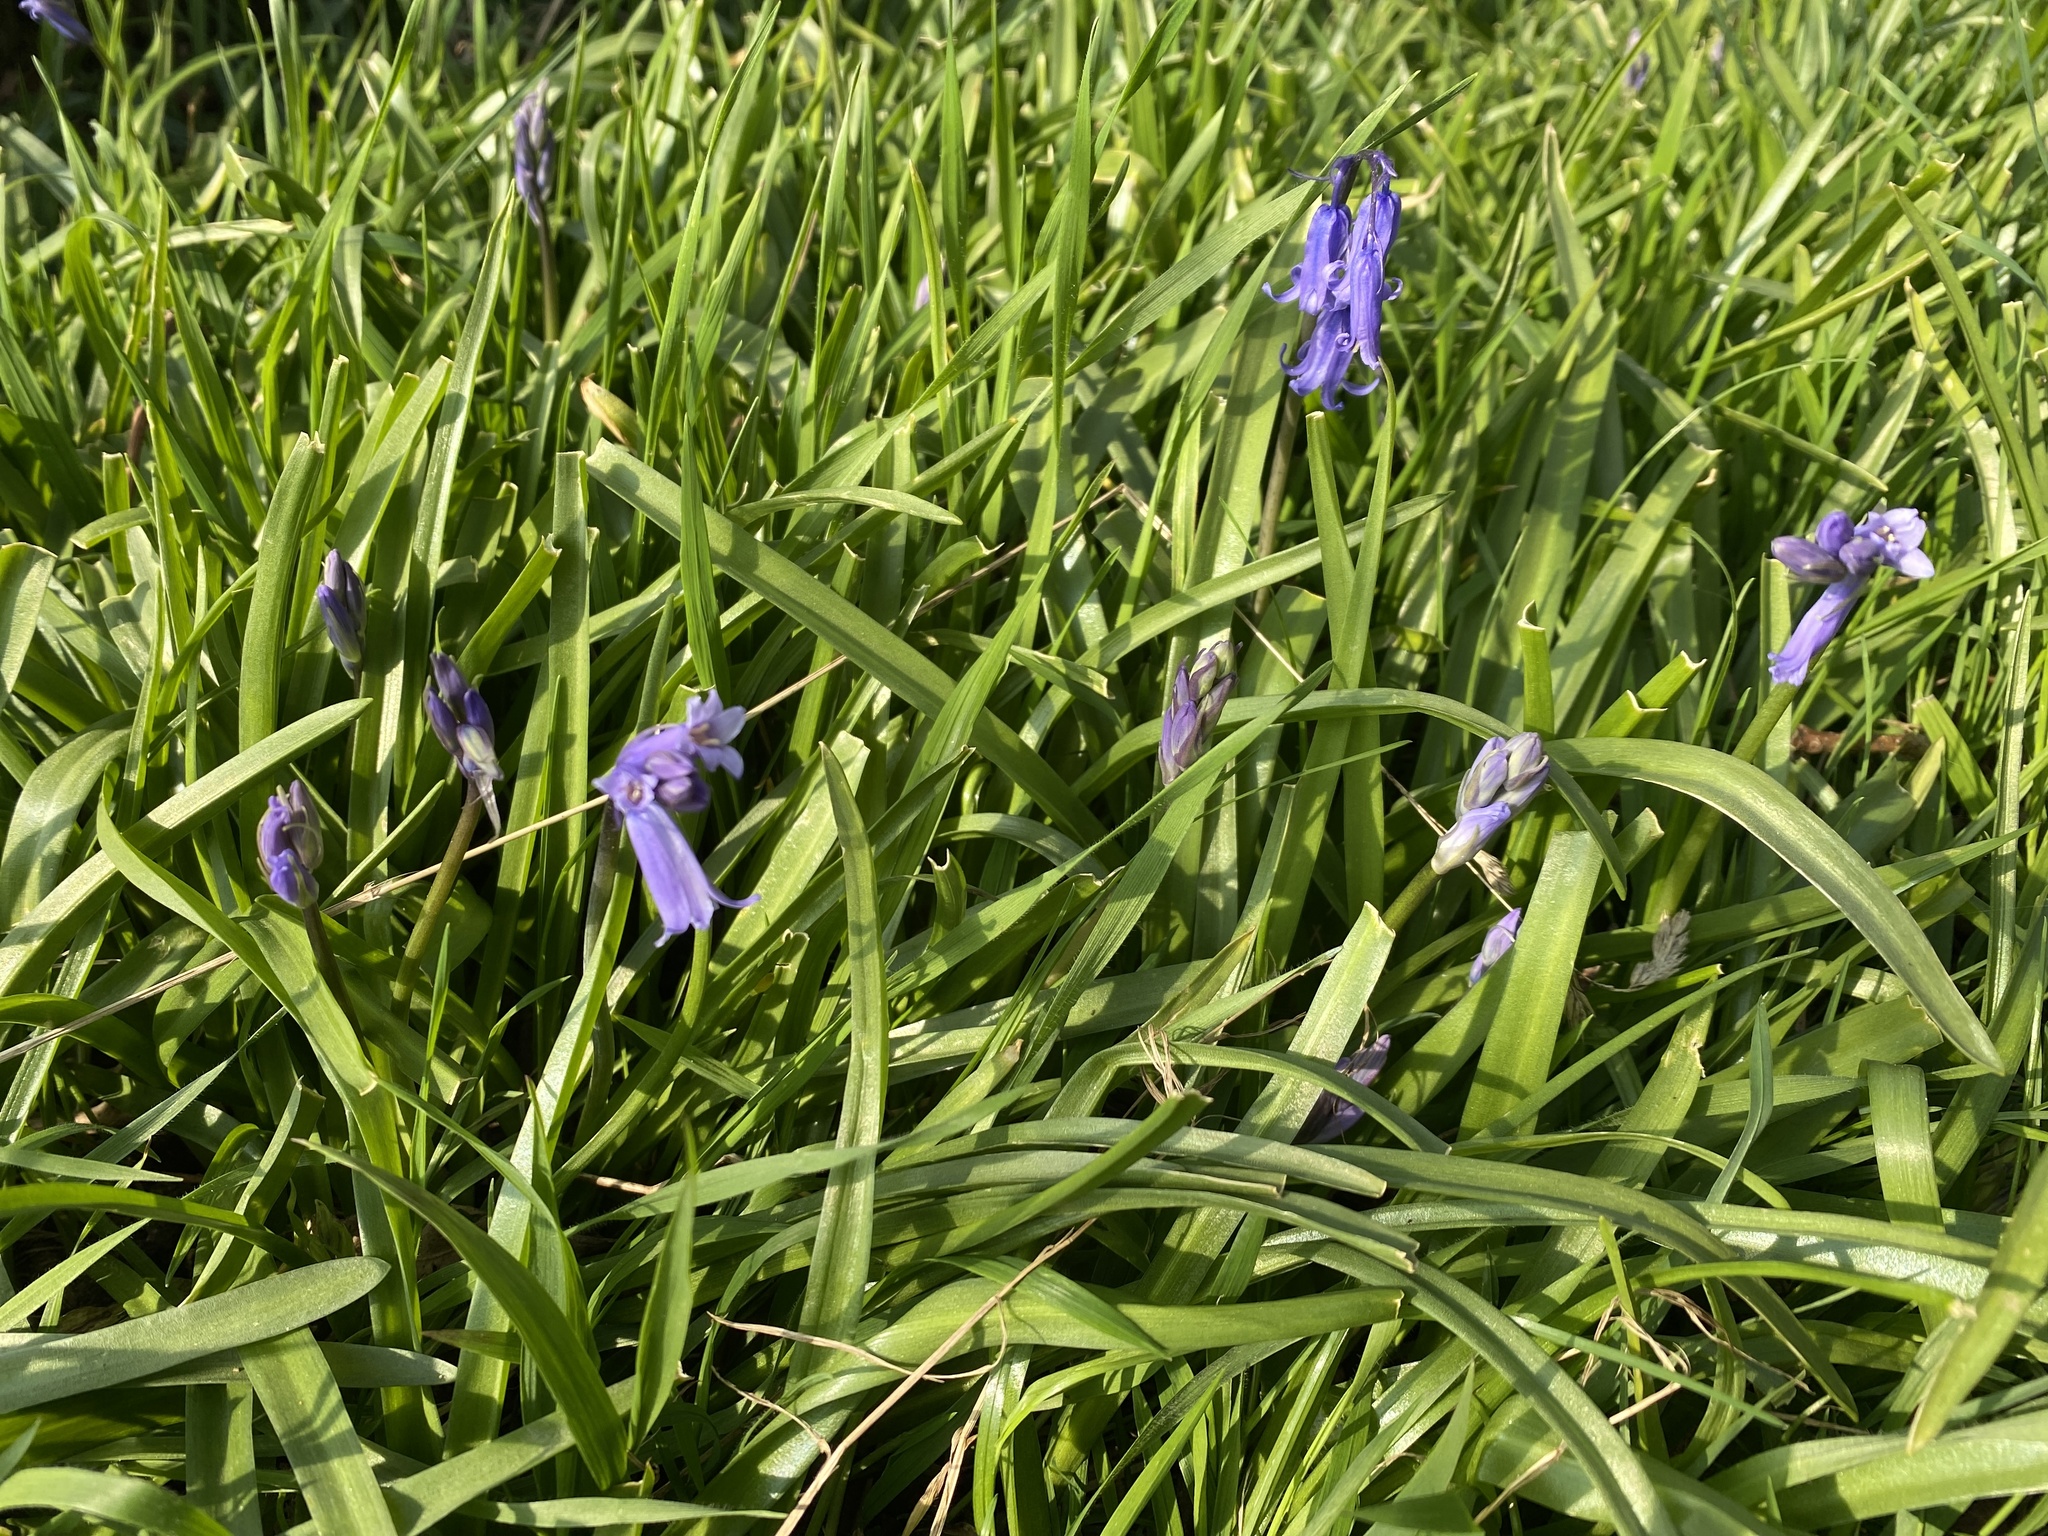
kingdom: Plantae
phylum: Tracheophyta
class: Liliopsida
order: Asparagales
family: Asparagaceae
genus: Hyacinthoides
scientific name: Hyacinthoides non-scripta
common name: Bluebell
